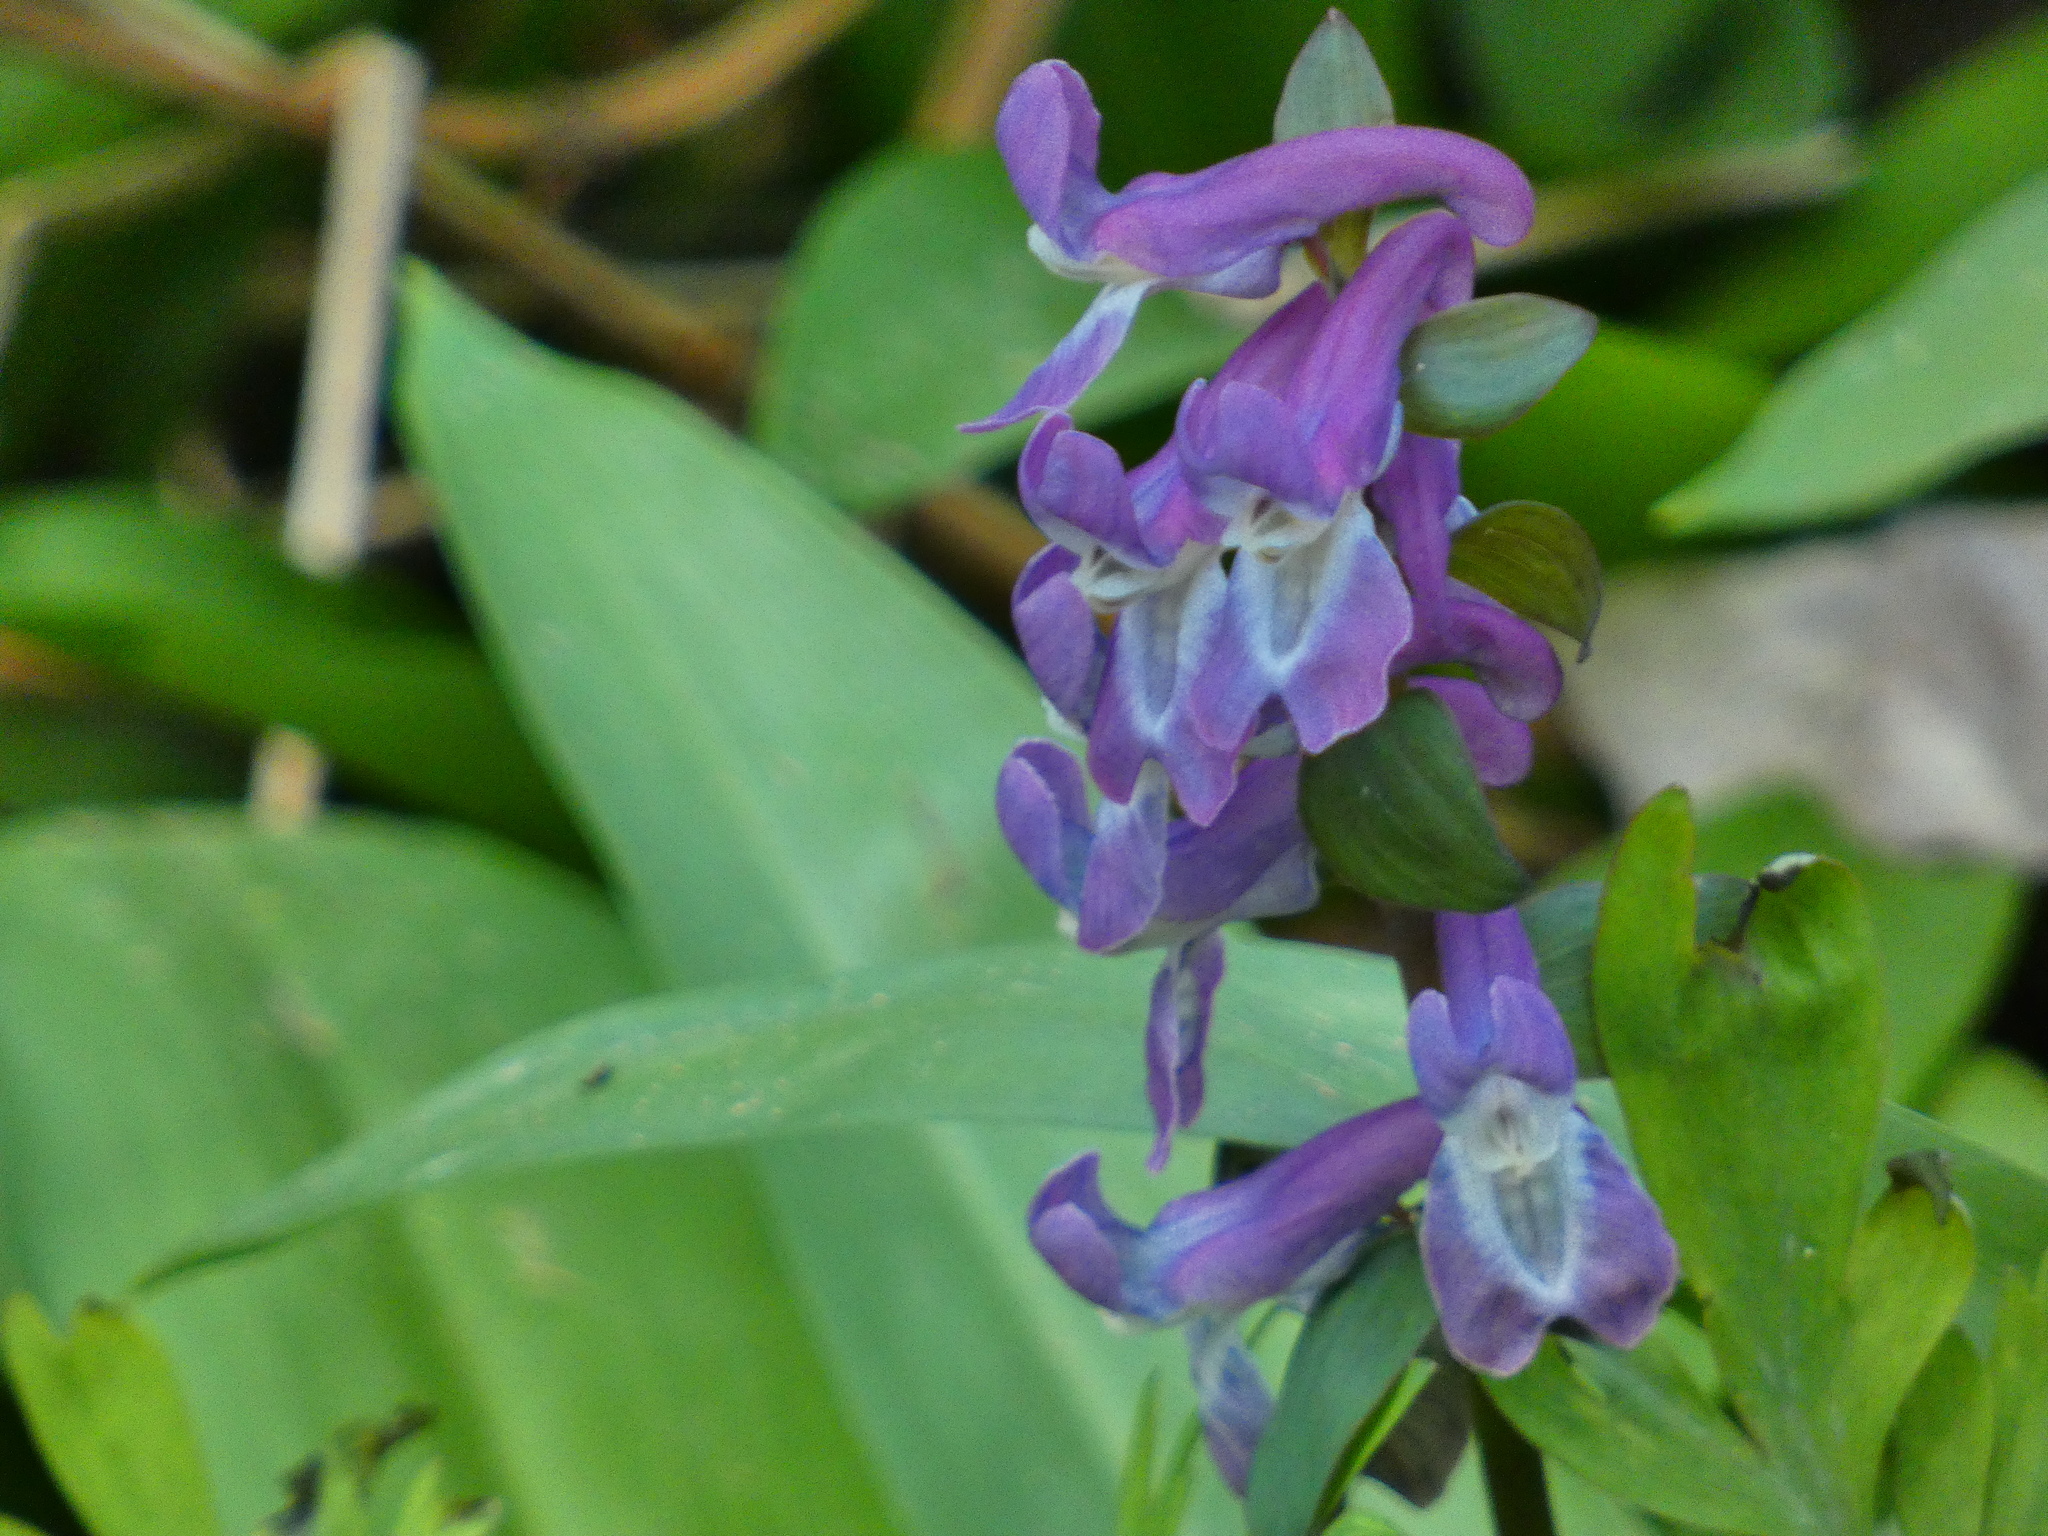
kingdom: Plantae
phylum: Tracheophyta
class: Magnoliopsida
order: Ranunculales
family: Papaveraceae
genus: Corydalis
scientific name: Corydalis cava
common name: Hollowroot
